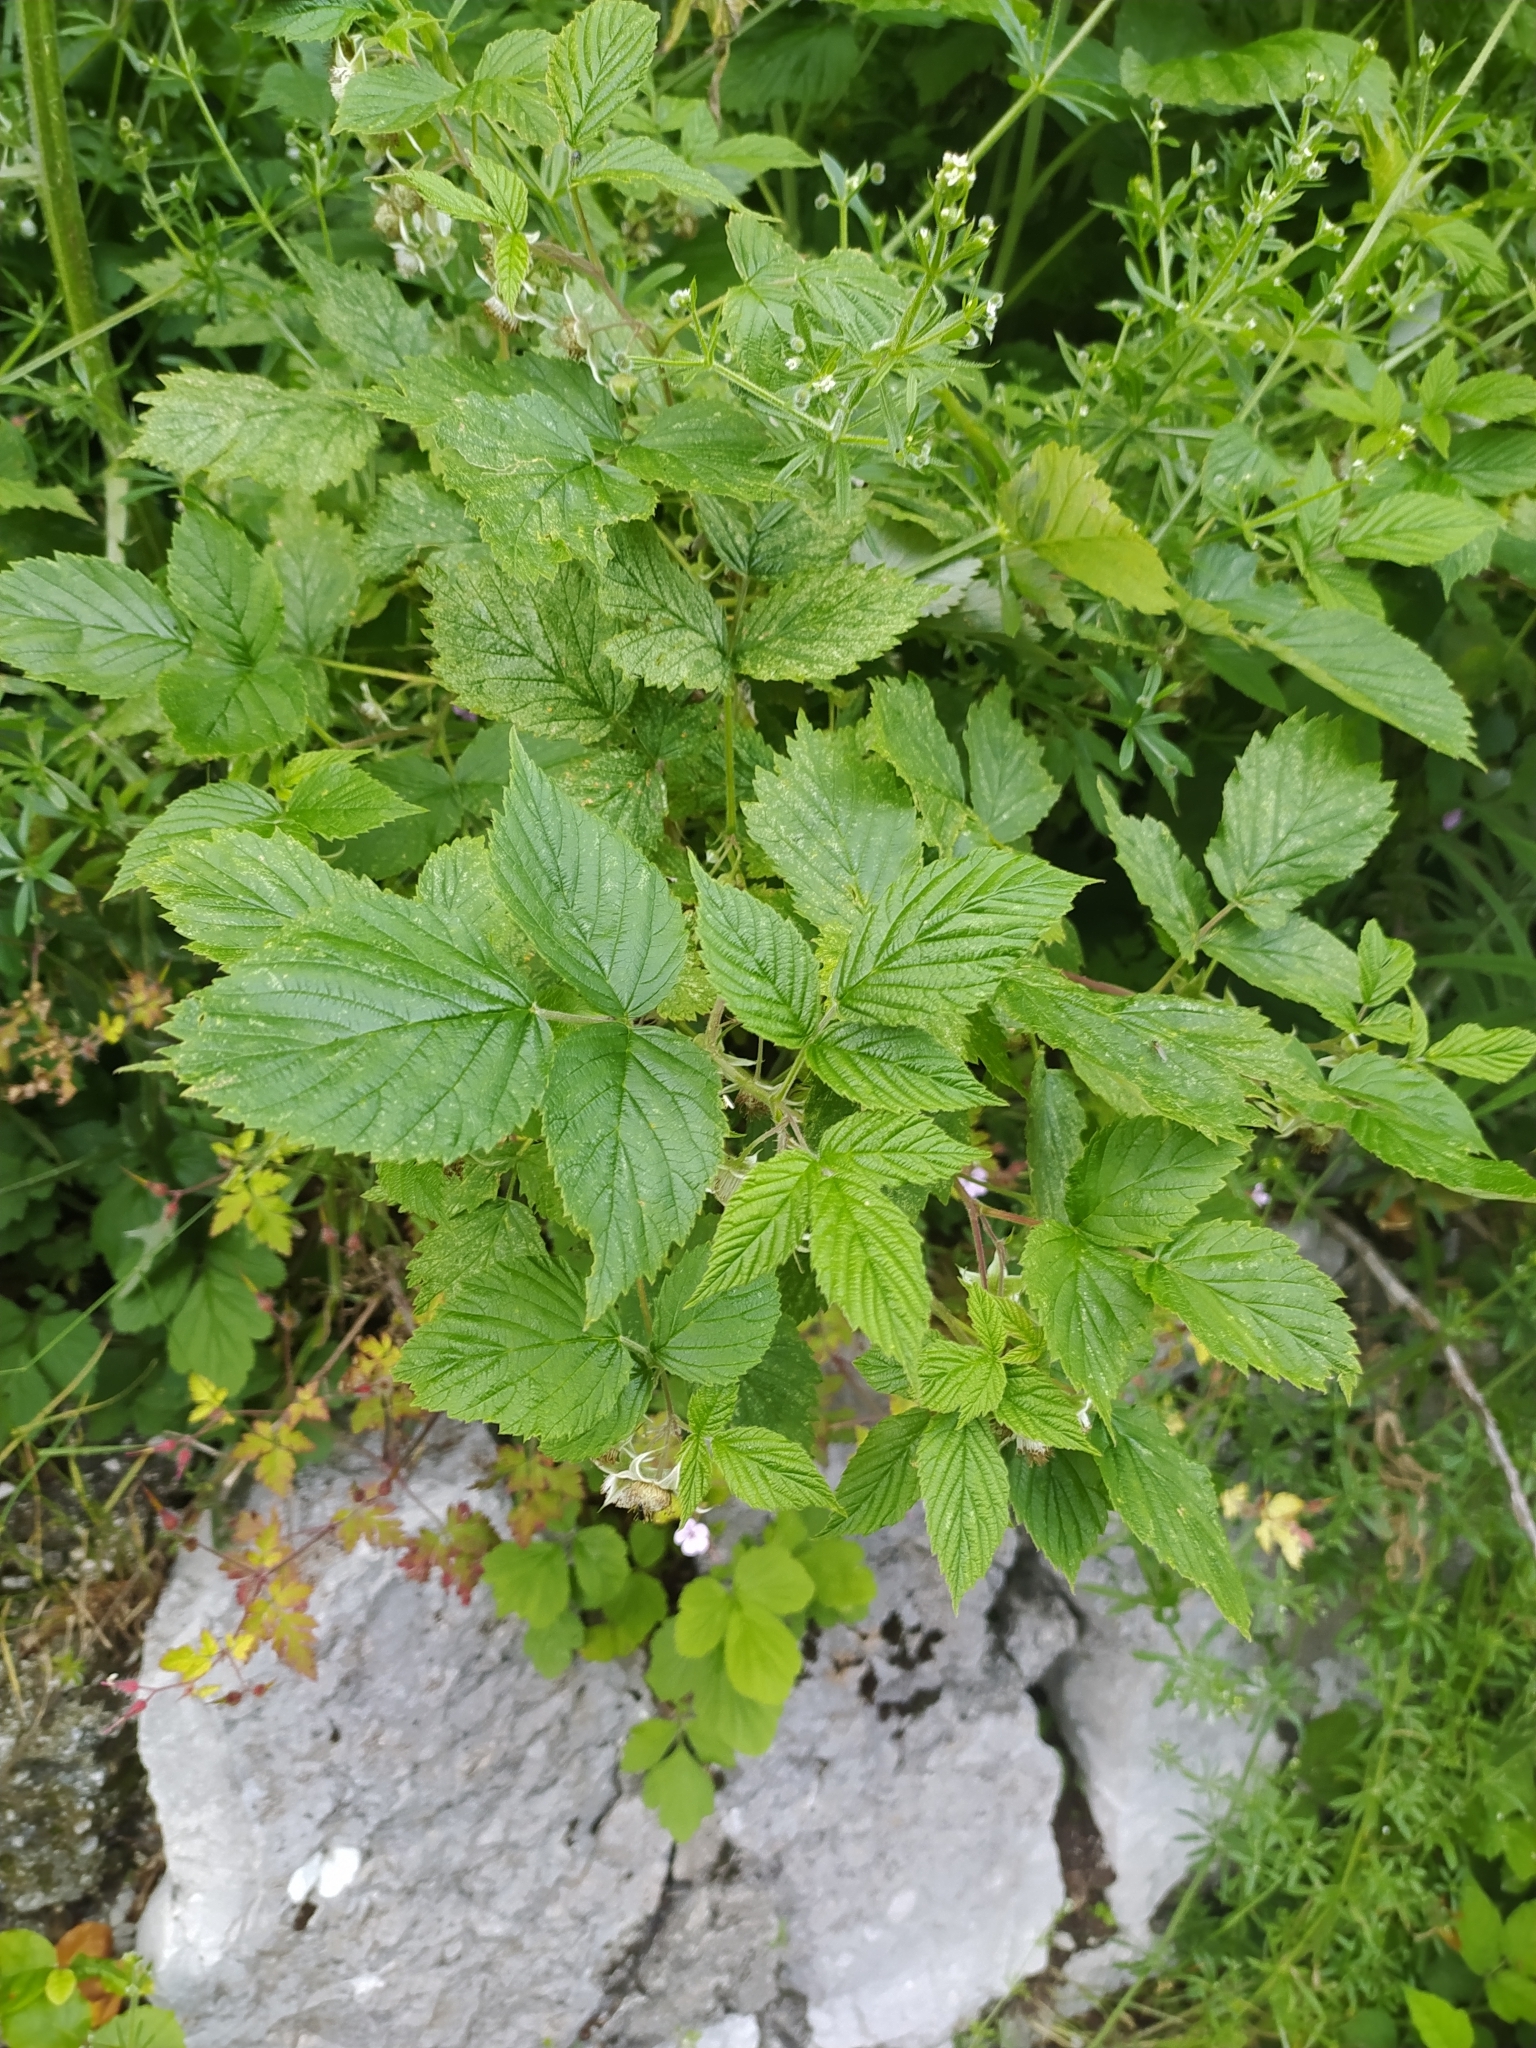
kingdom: Plantae
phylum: Tracheophyta
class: Magnoliopsida
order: Rosales
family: Rosaceae
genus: Rubus
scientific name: Rubus idaeus
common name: Raspberry
